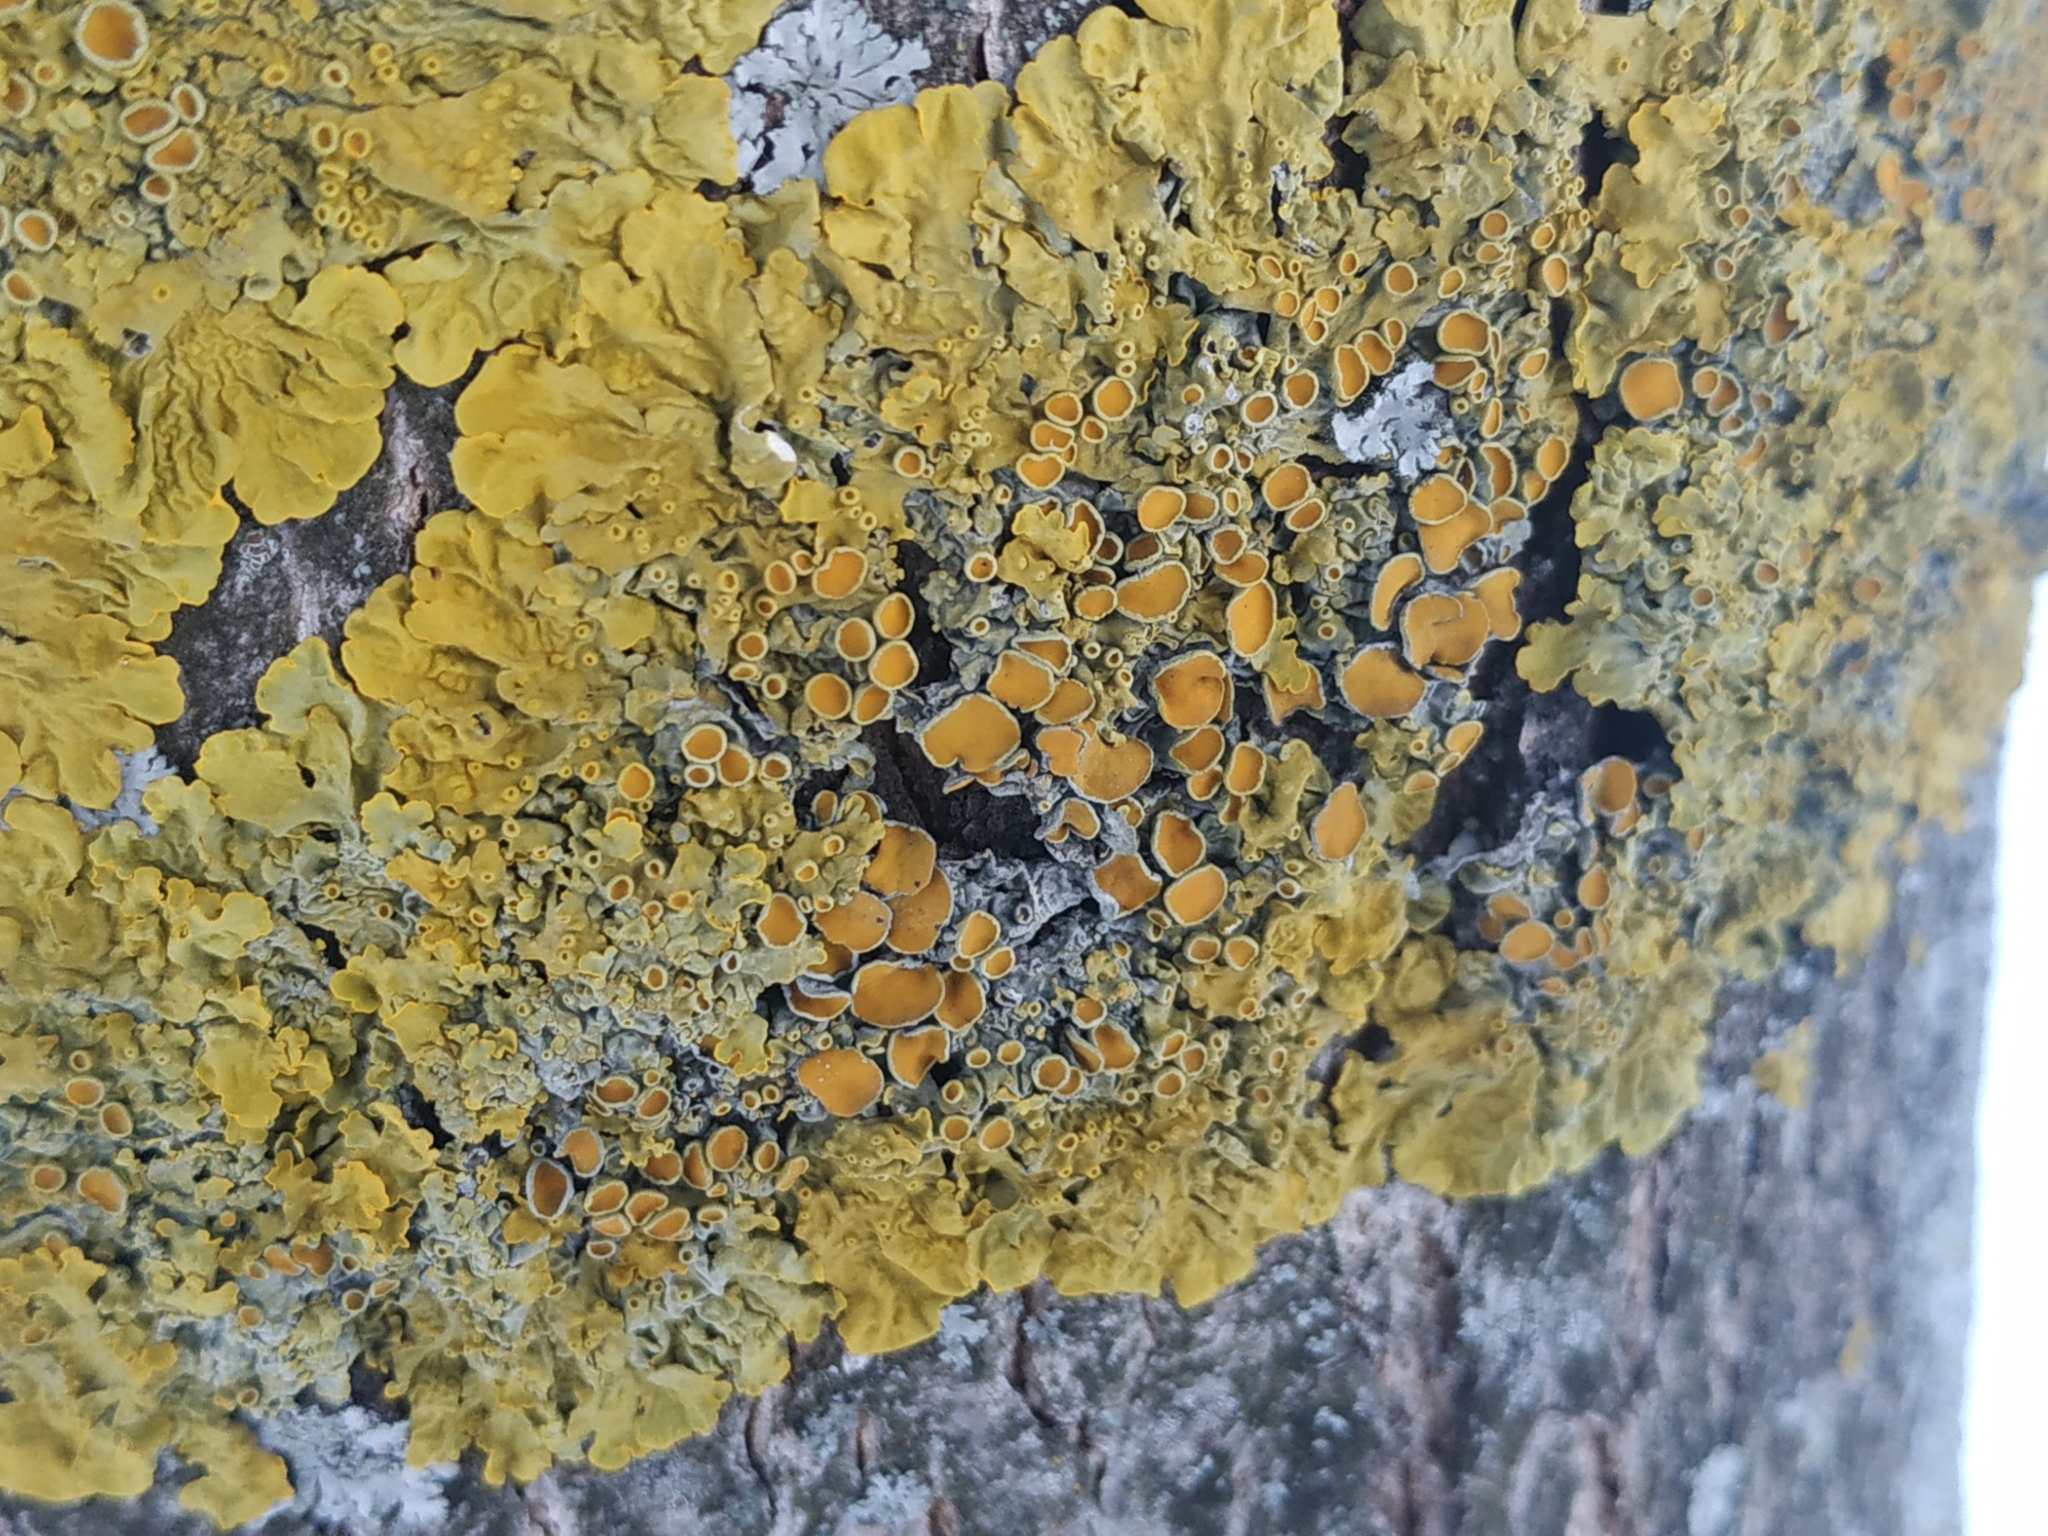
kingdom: Fungi
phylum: Ascomycota
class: Lecanoromycetes
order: Teloschistales
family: Teloschistaceae
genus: Xanthoria
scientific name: Xanthoria parietina
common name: Common orange lichen
